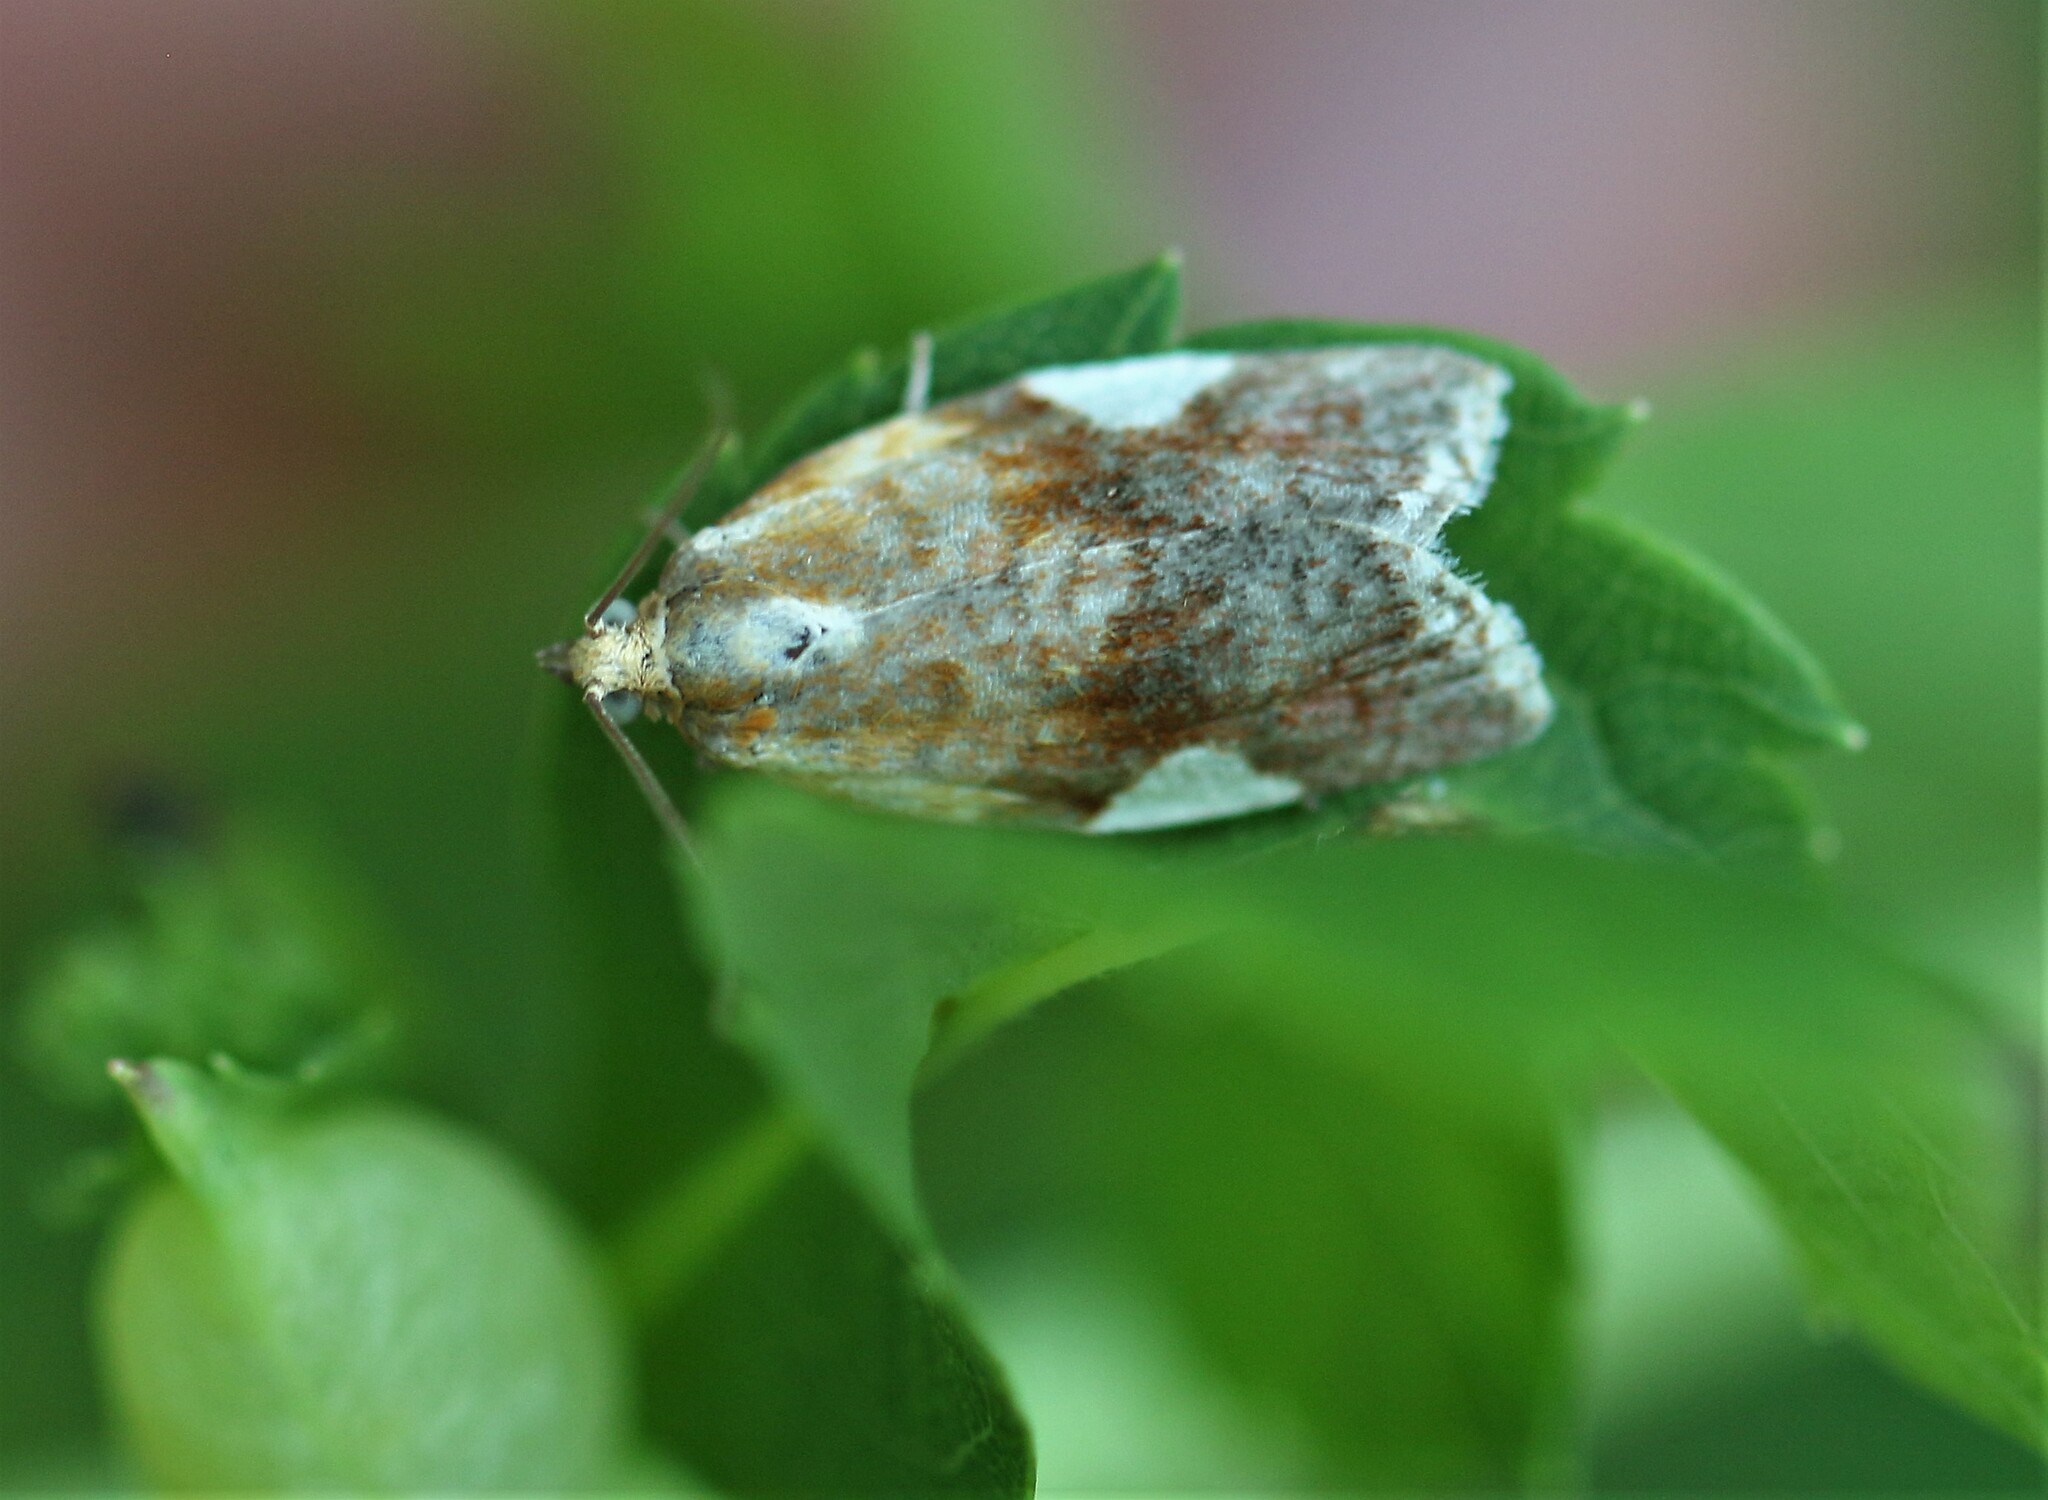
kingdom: Animalia
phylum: Arthropoda
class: Insecta
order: Lepidoptera
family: Tortricidae
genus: Clepsis
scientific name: Clepsis persicana
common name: White triangle tortrix
